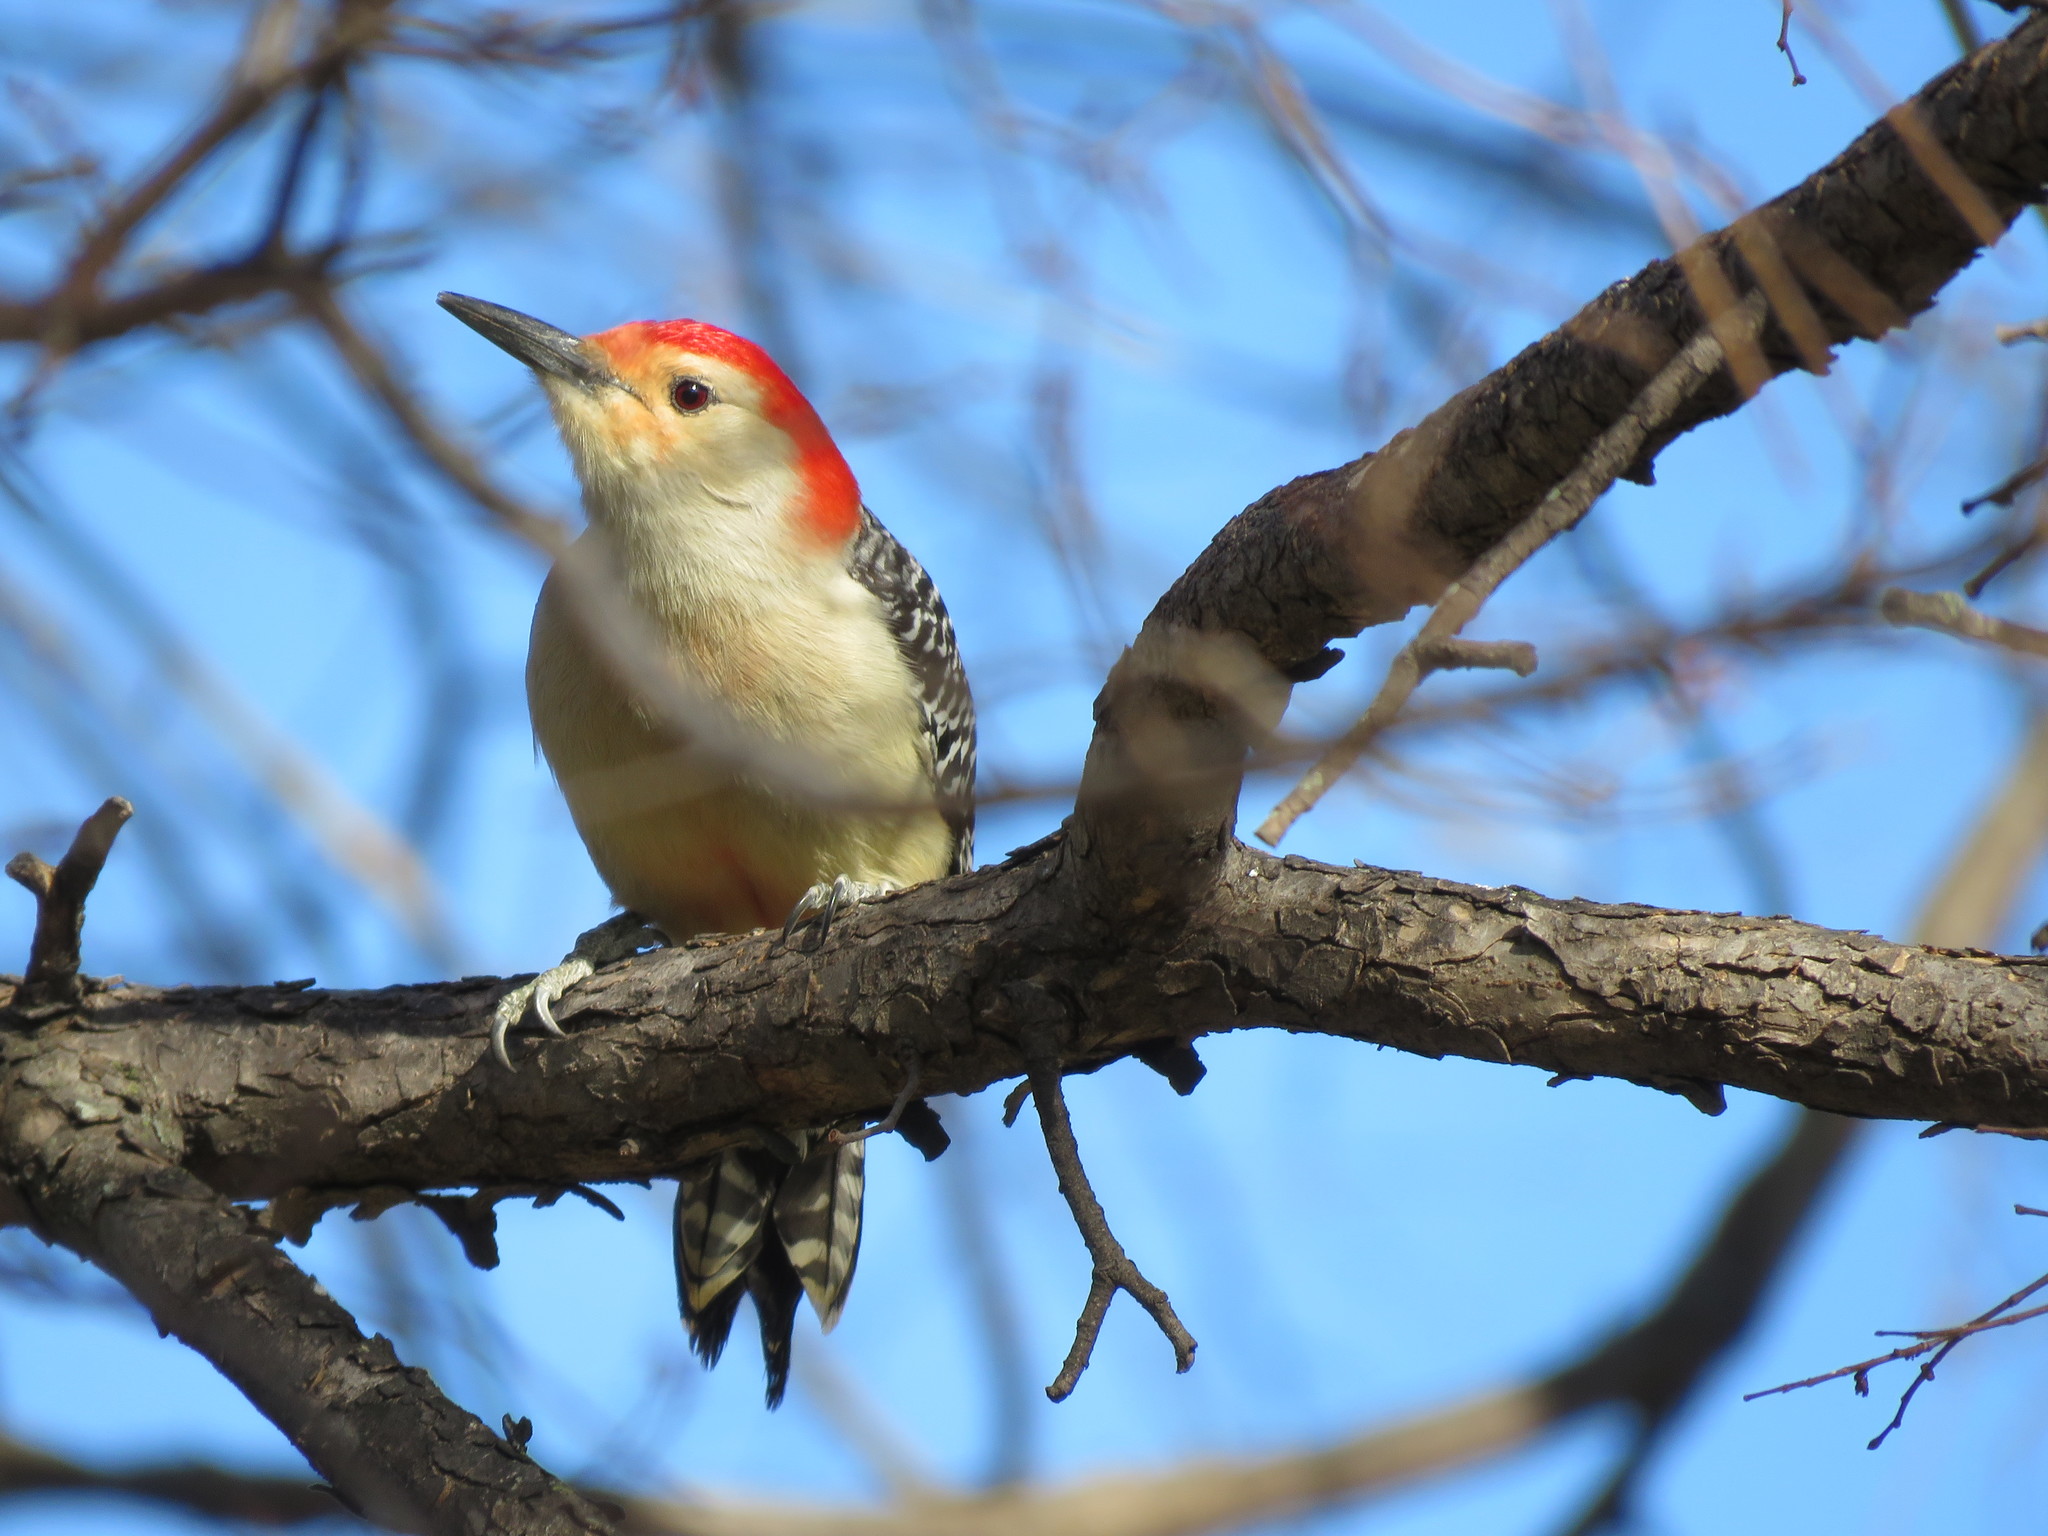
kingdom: Animalia
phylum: Chordata
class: Aves
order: Piciformes
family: Picidae
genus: Melanerpes
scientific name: Melanerpes carolinus
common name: Red-bellied woodpecker
